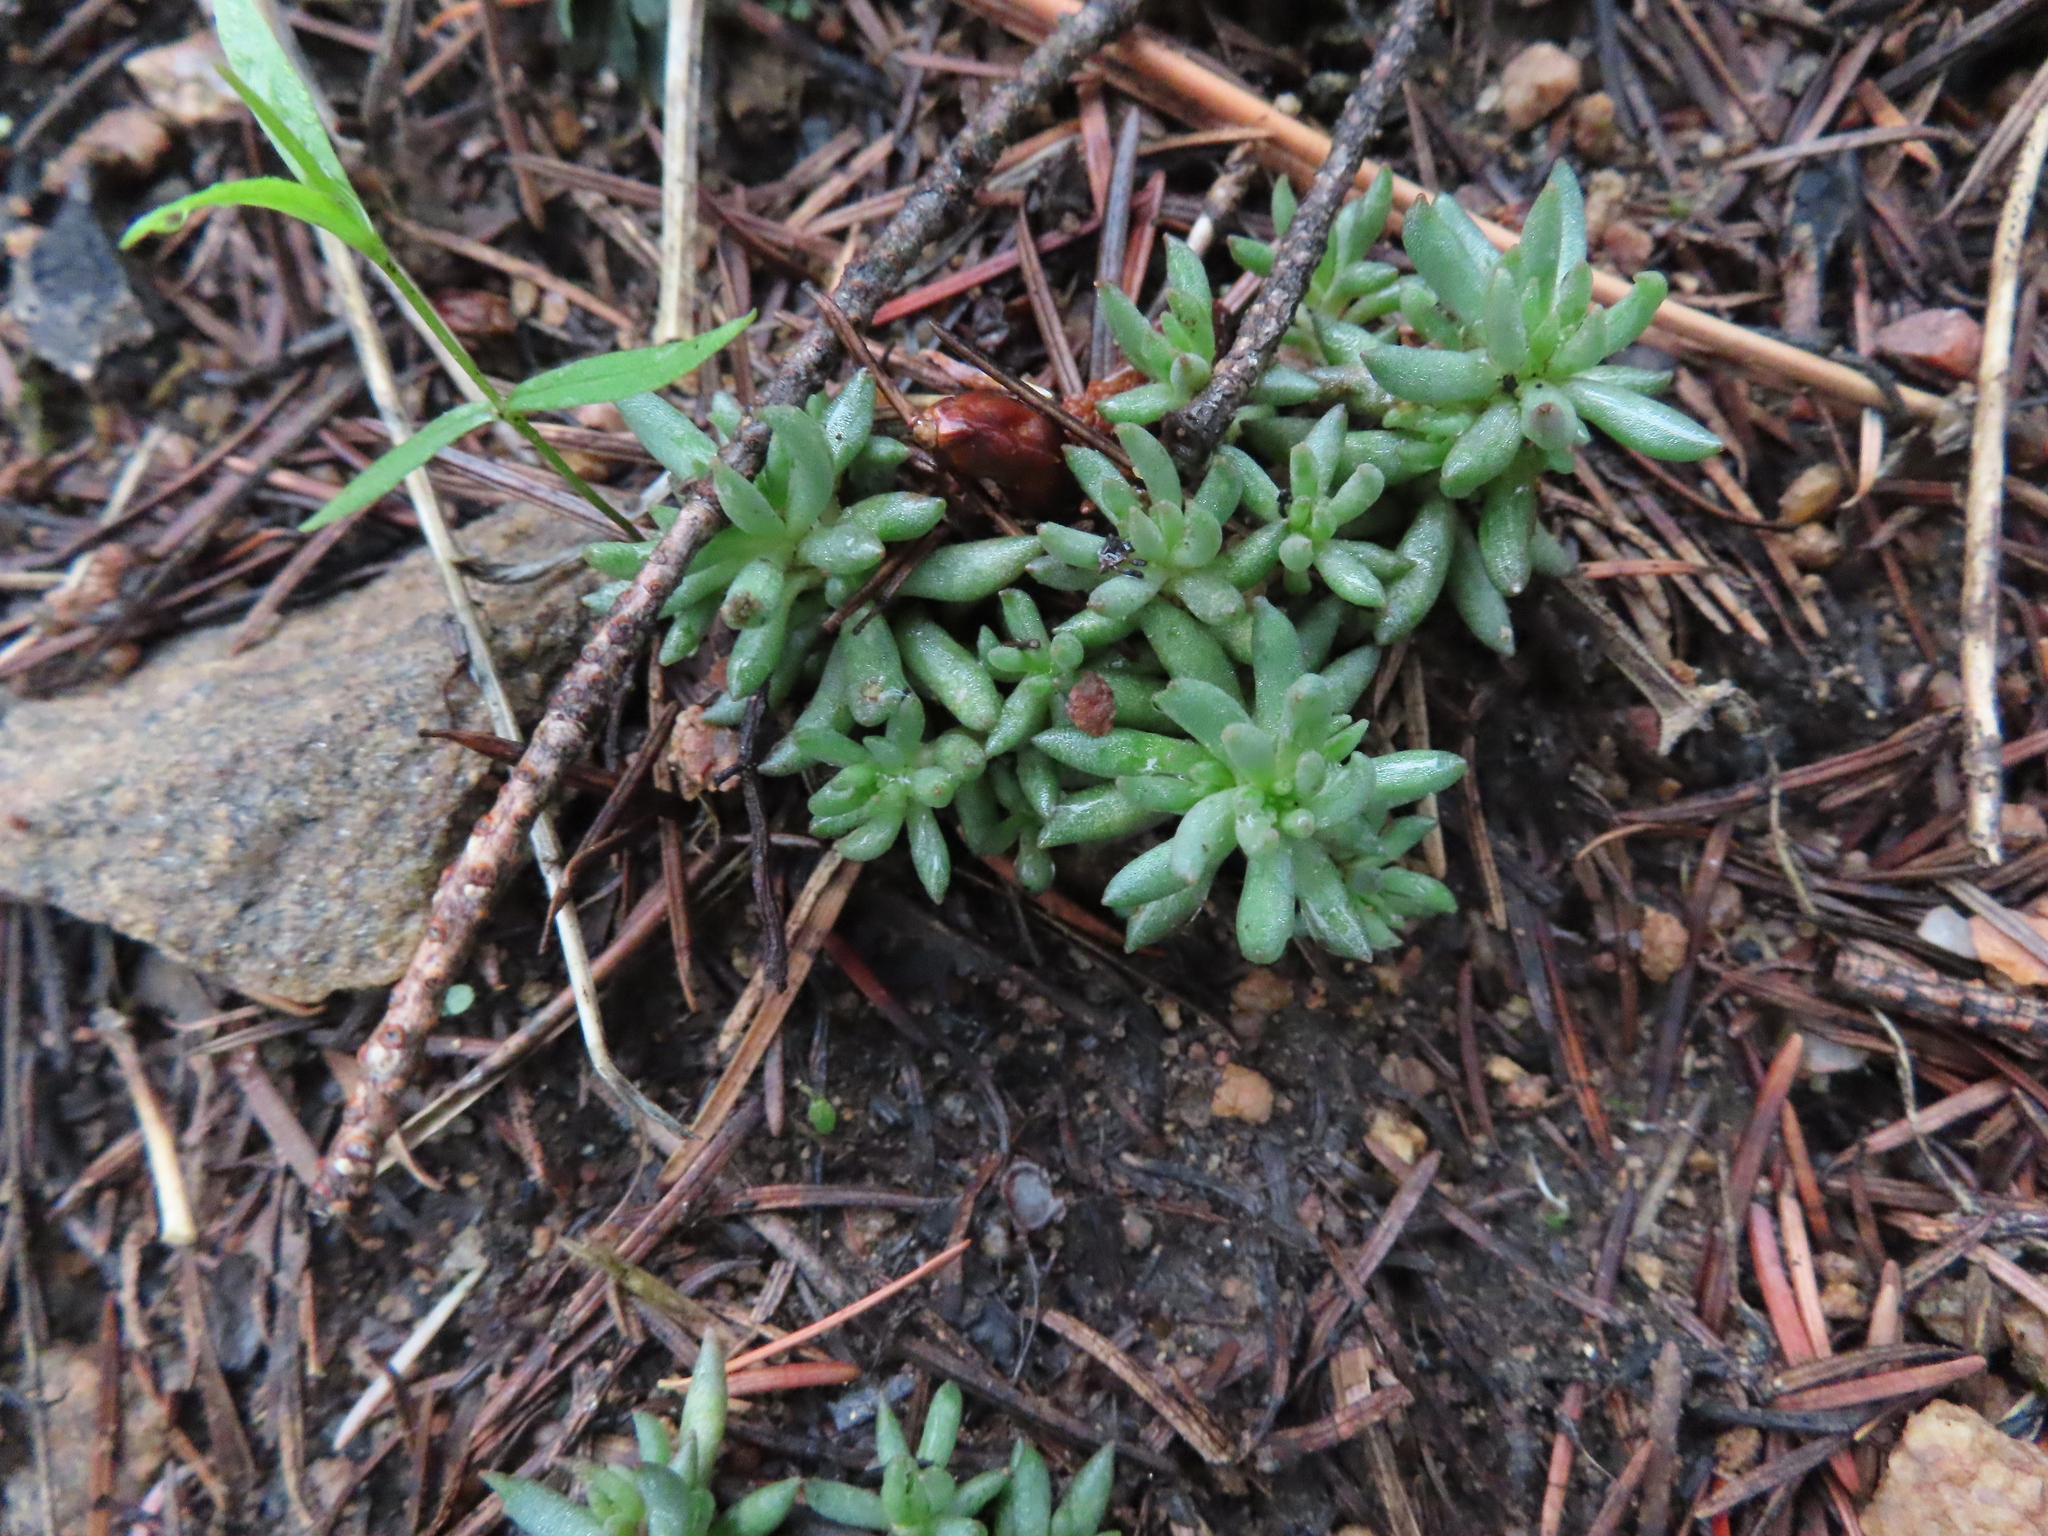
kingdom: Plantae
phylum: Tracheophyta
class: Magnoliopsida
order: Saxifragales
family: Crassulaceae
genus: Sedum
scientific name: Sedum lanceolatum
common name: Common stonecrop
